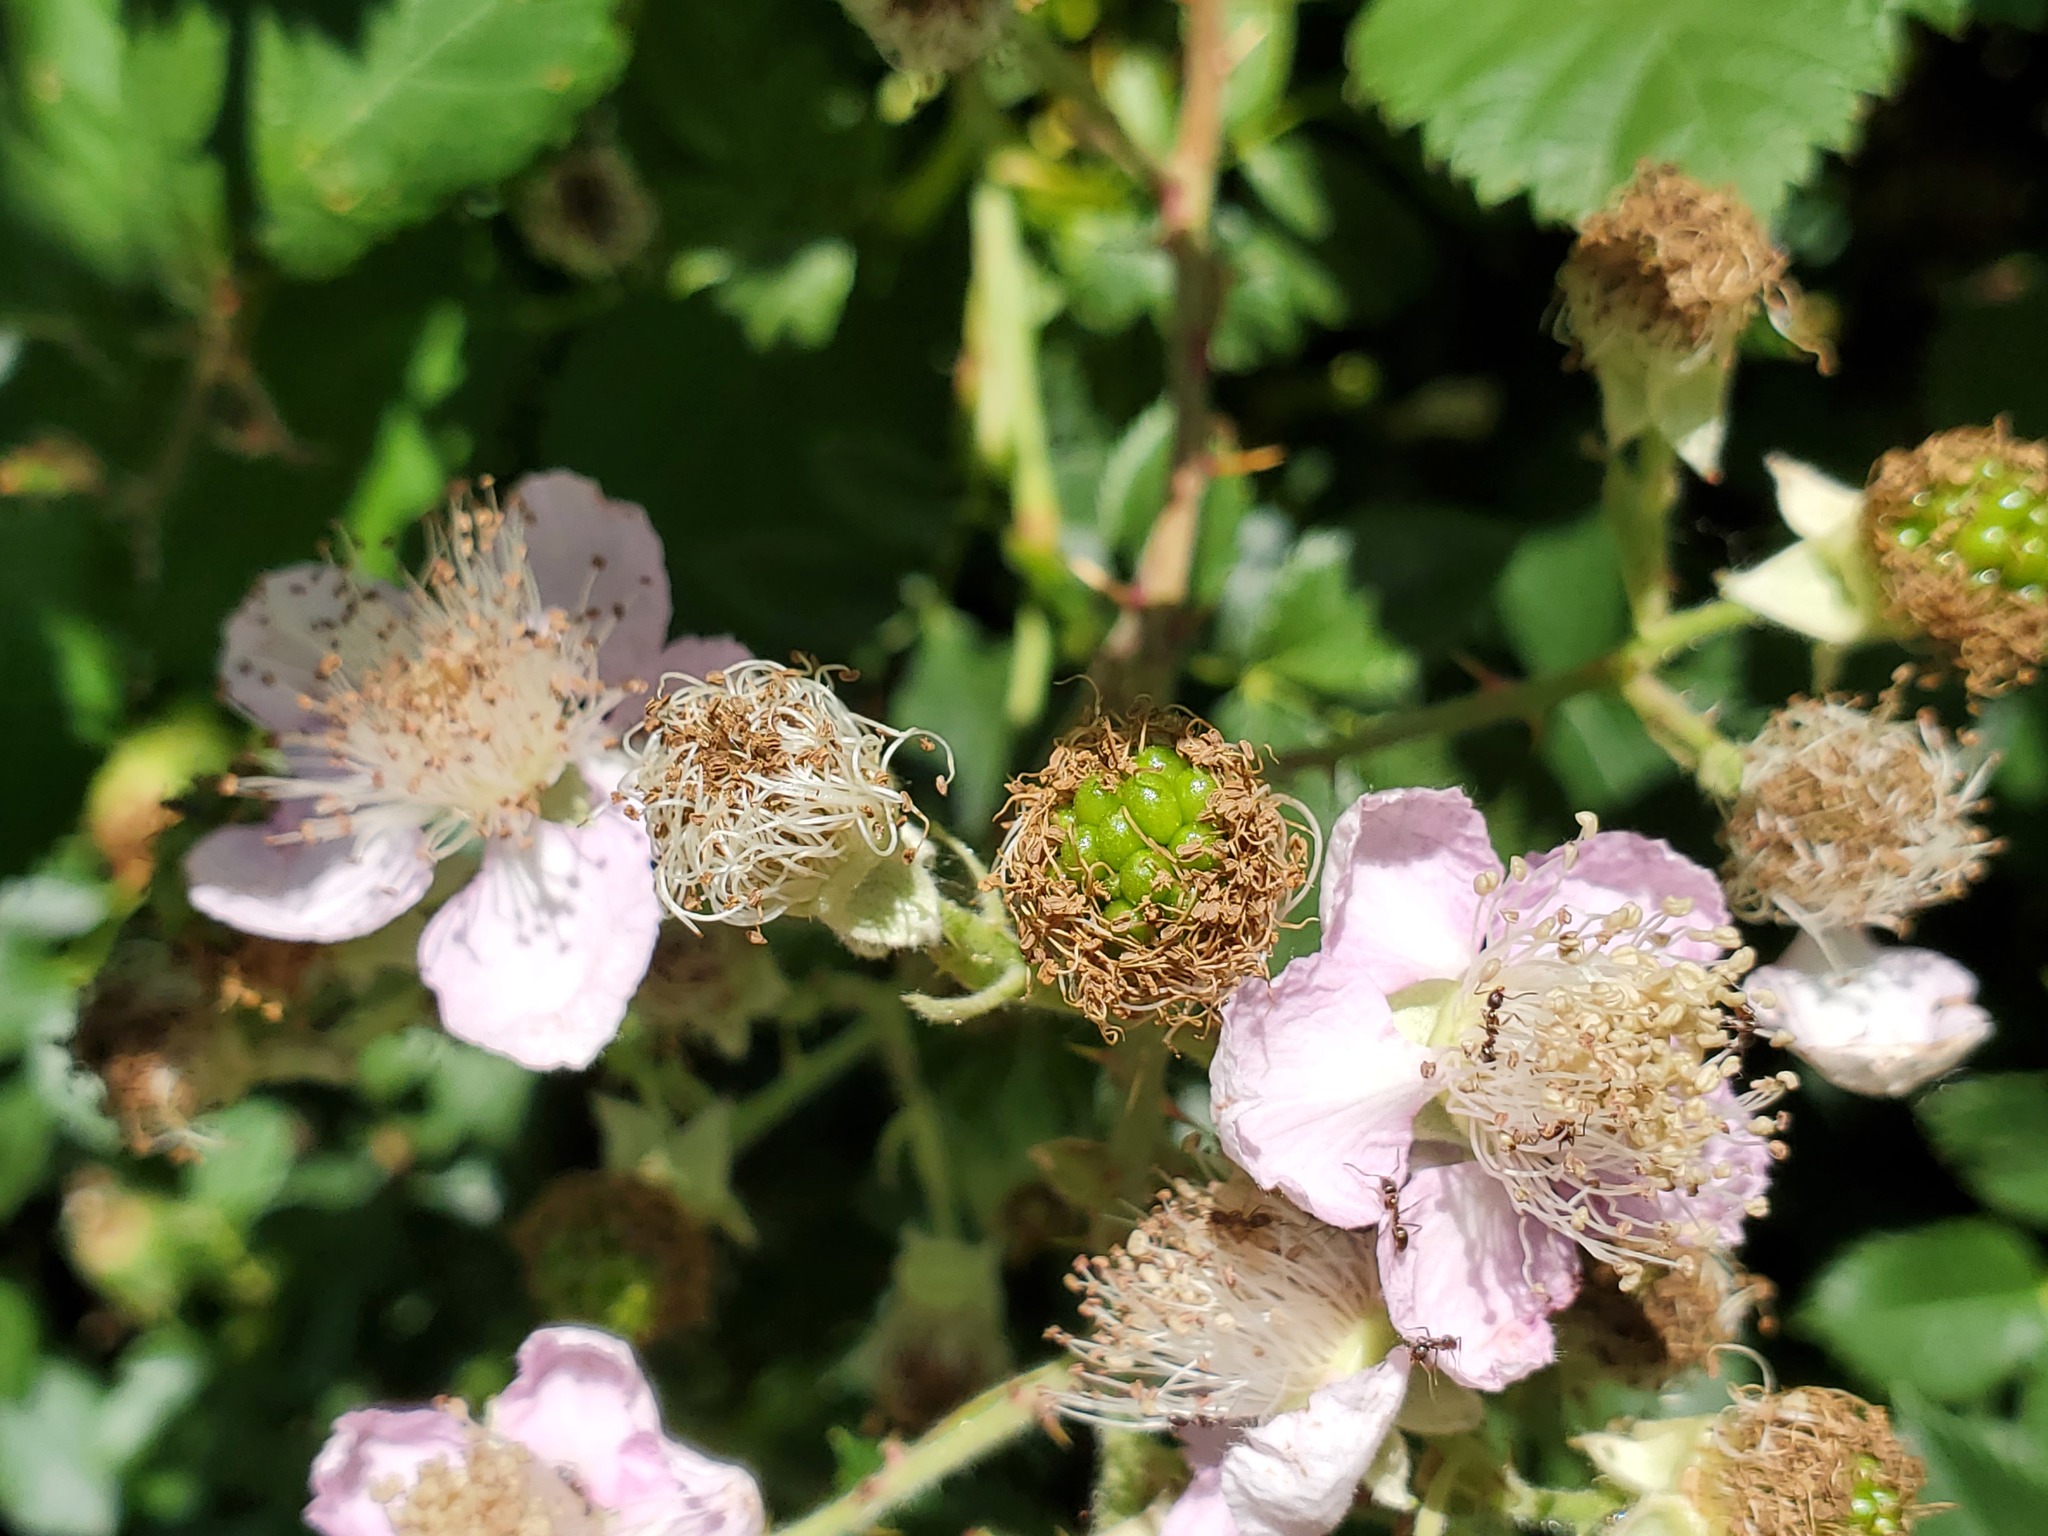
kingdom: Plantae
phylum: Tracheophyta
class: Magnoliopsida
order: Rosales
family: Rosaceae
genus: Rubus
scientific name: Rubus armeniacus
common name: Himalayan blackberry
